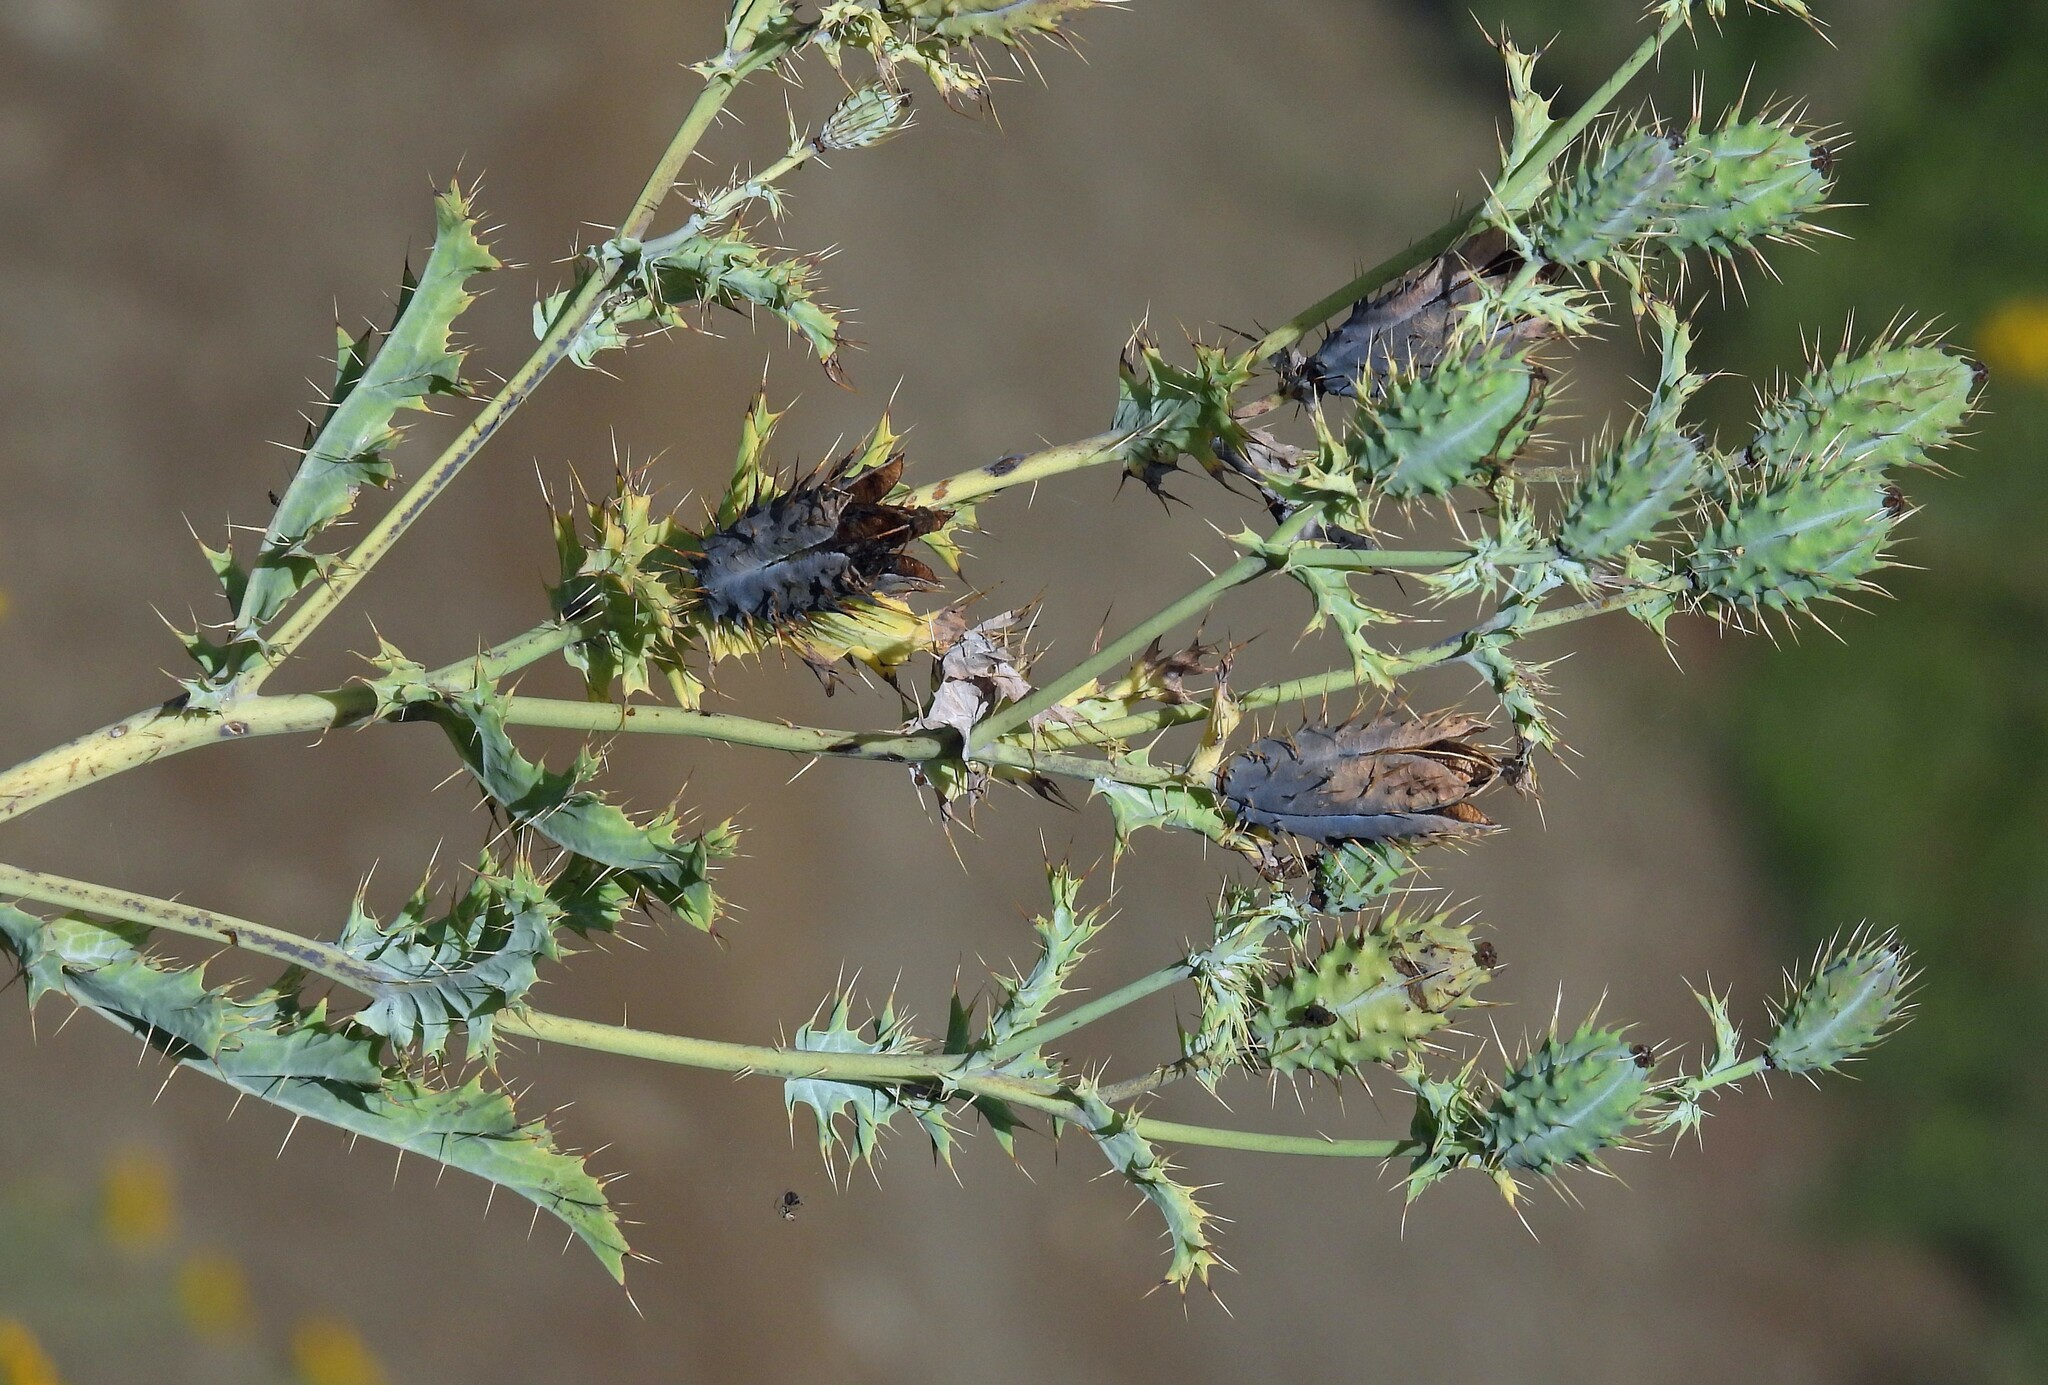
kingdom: Plantae
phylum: Tracheophyta
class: Magnoliopsida
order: Ranunculales
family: Papaveraceae
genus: Argemone
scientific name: Argemone subfusiformis
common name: American-poppy
